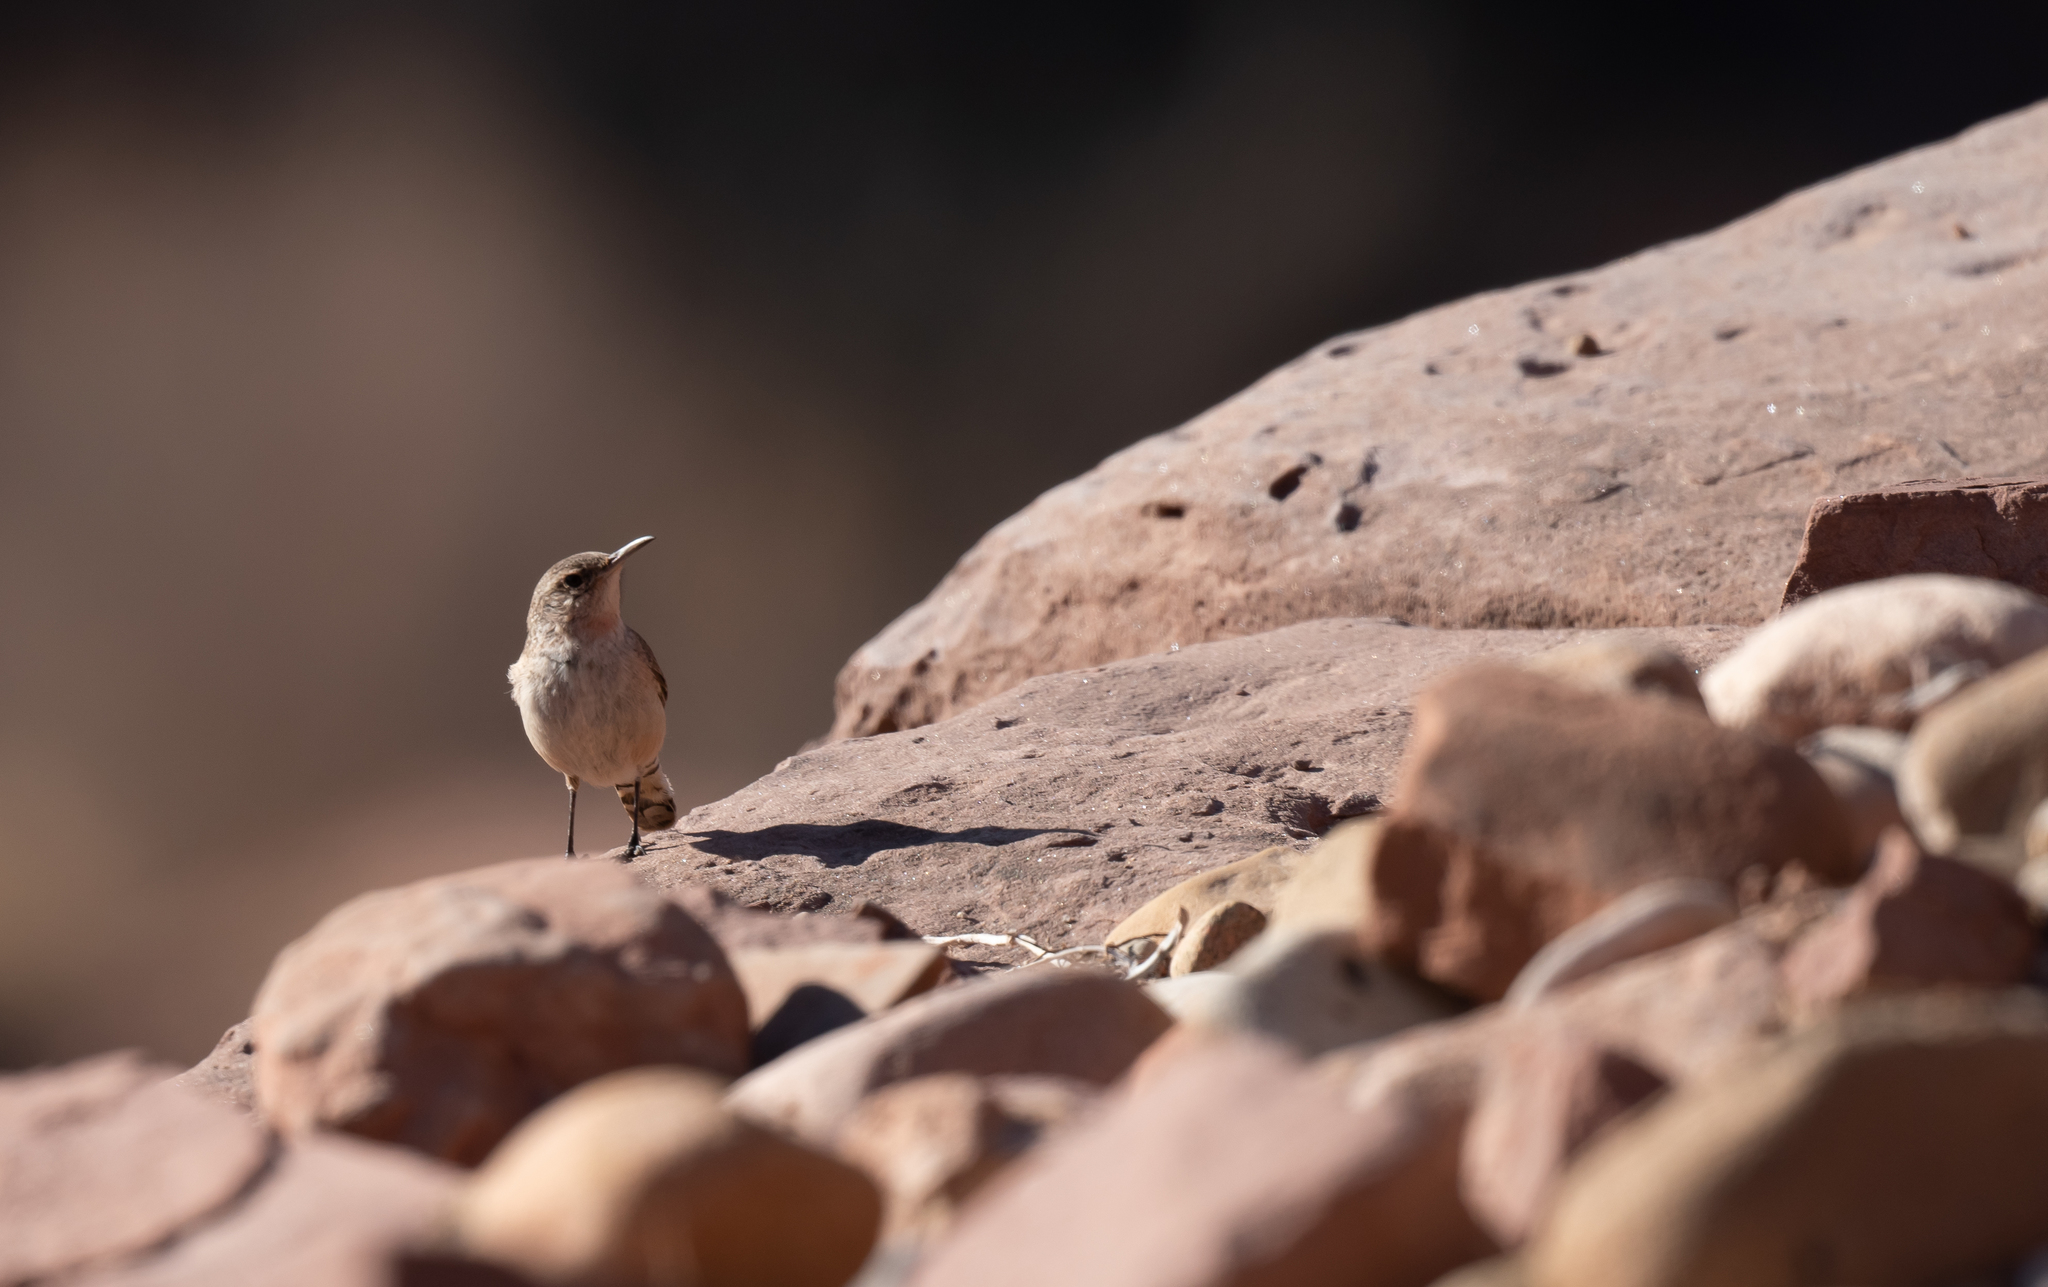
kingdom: Animalia
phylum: Chordata
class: Aves
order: Passeriformes
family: Troglodytidae
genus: Salpinctes
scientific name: Salpinctes obsoletus
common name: Rock wren
